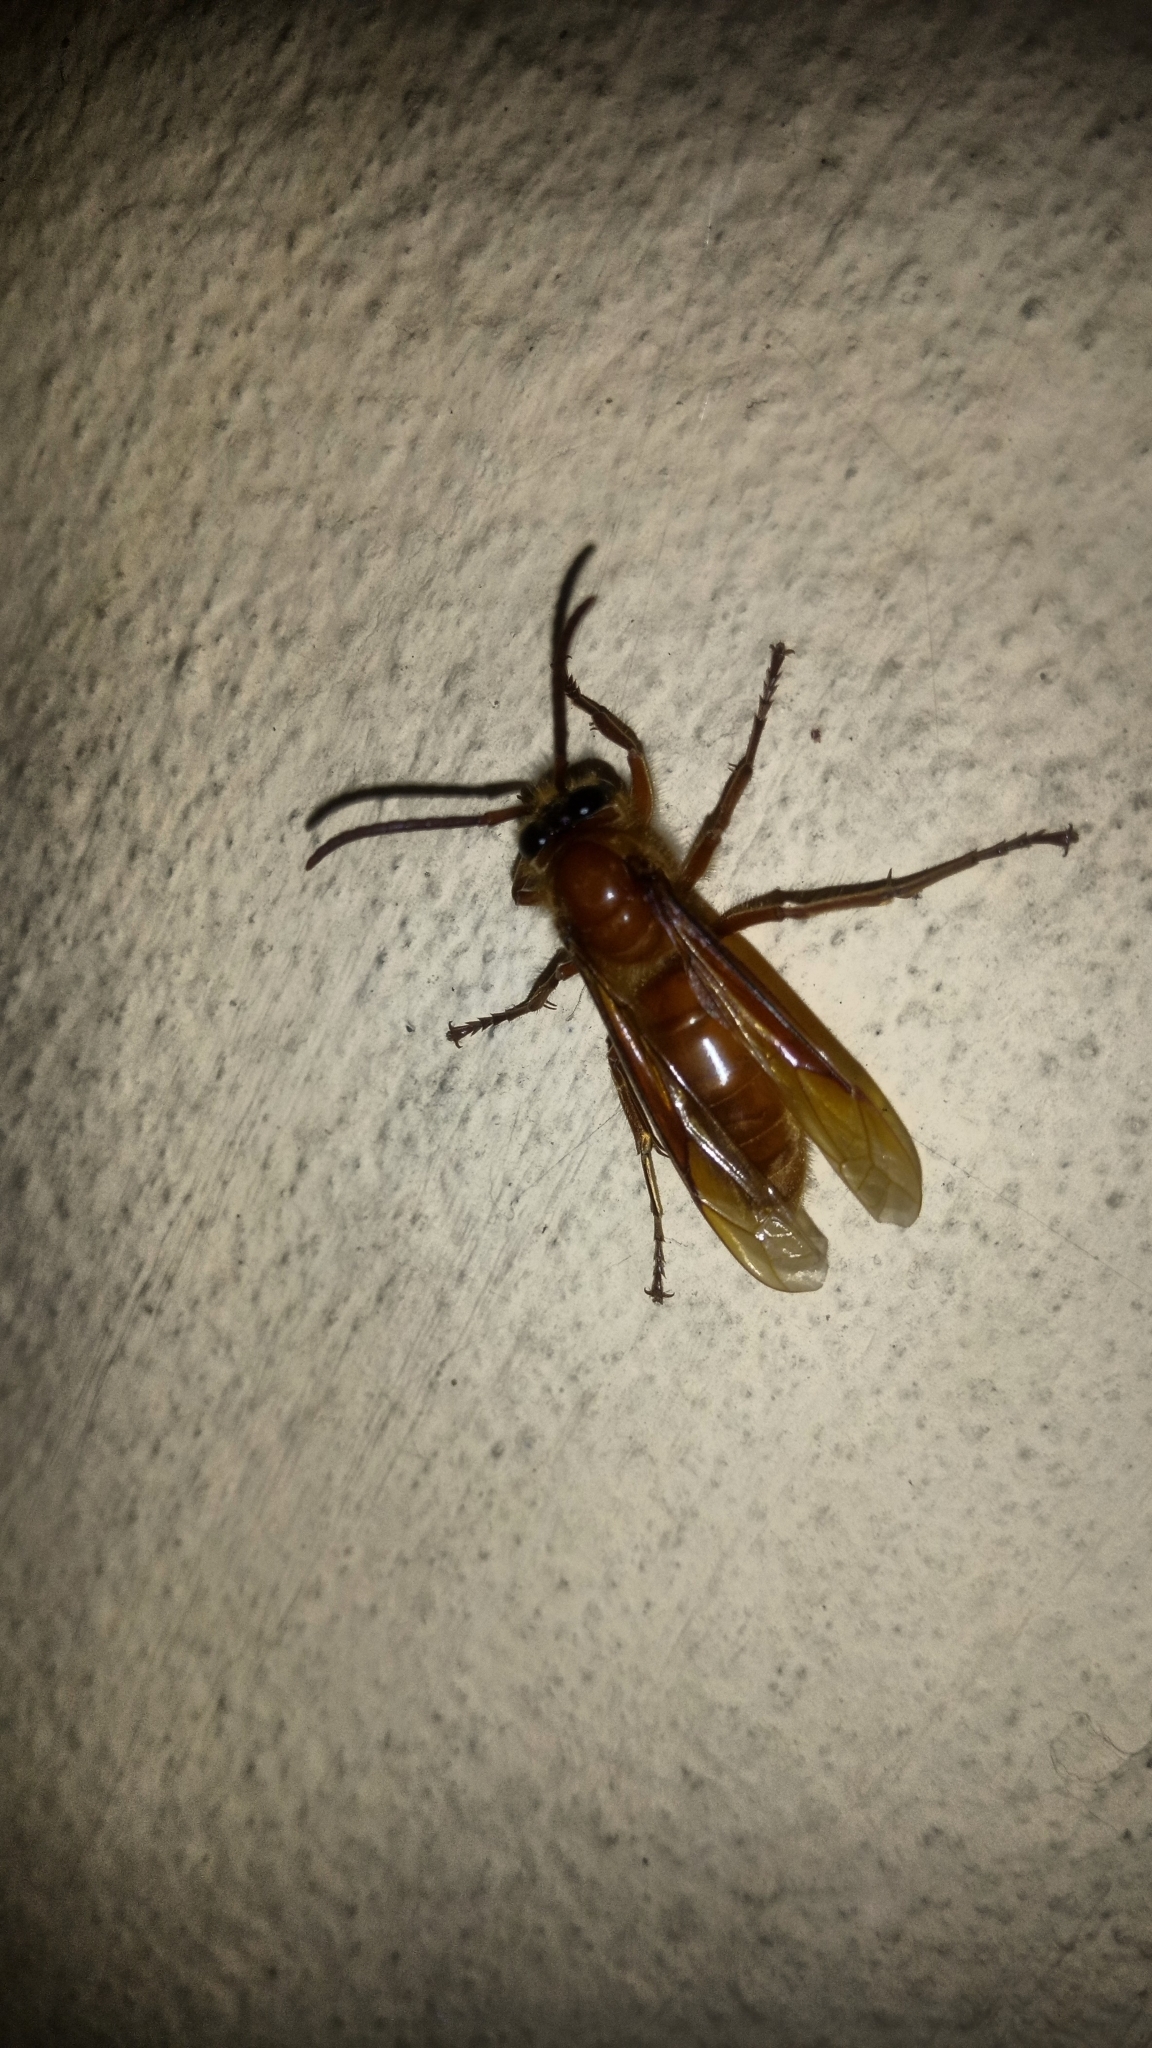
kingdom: Animalia
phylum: Arthropoda
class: Insecta
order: Hymenoptera
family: Vespidae
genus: Provespa
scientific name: Provespa barthelemyi
